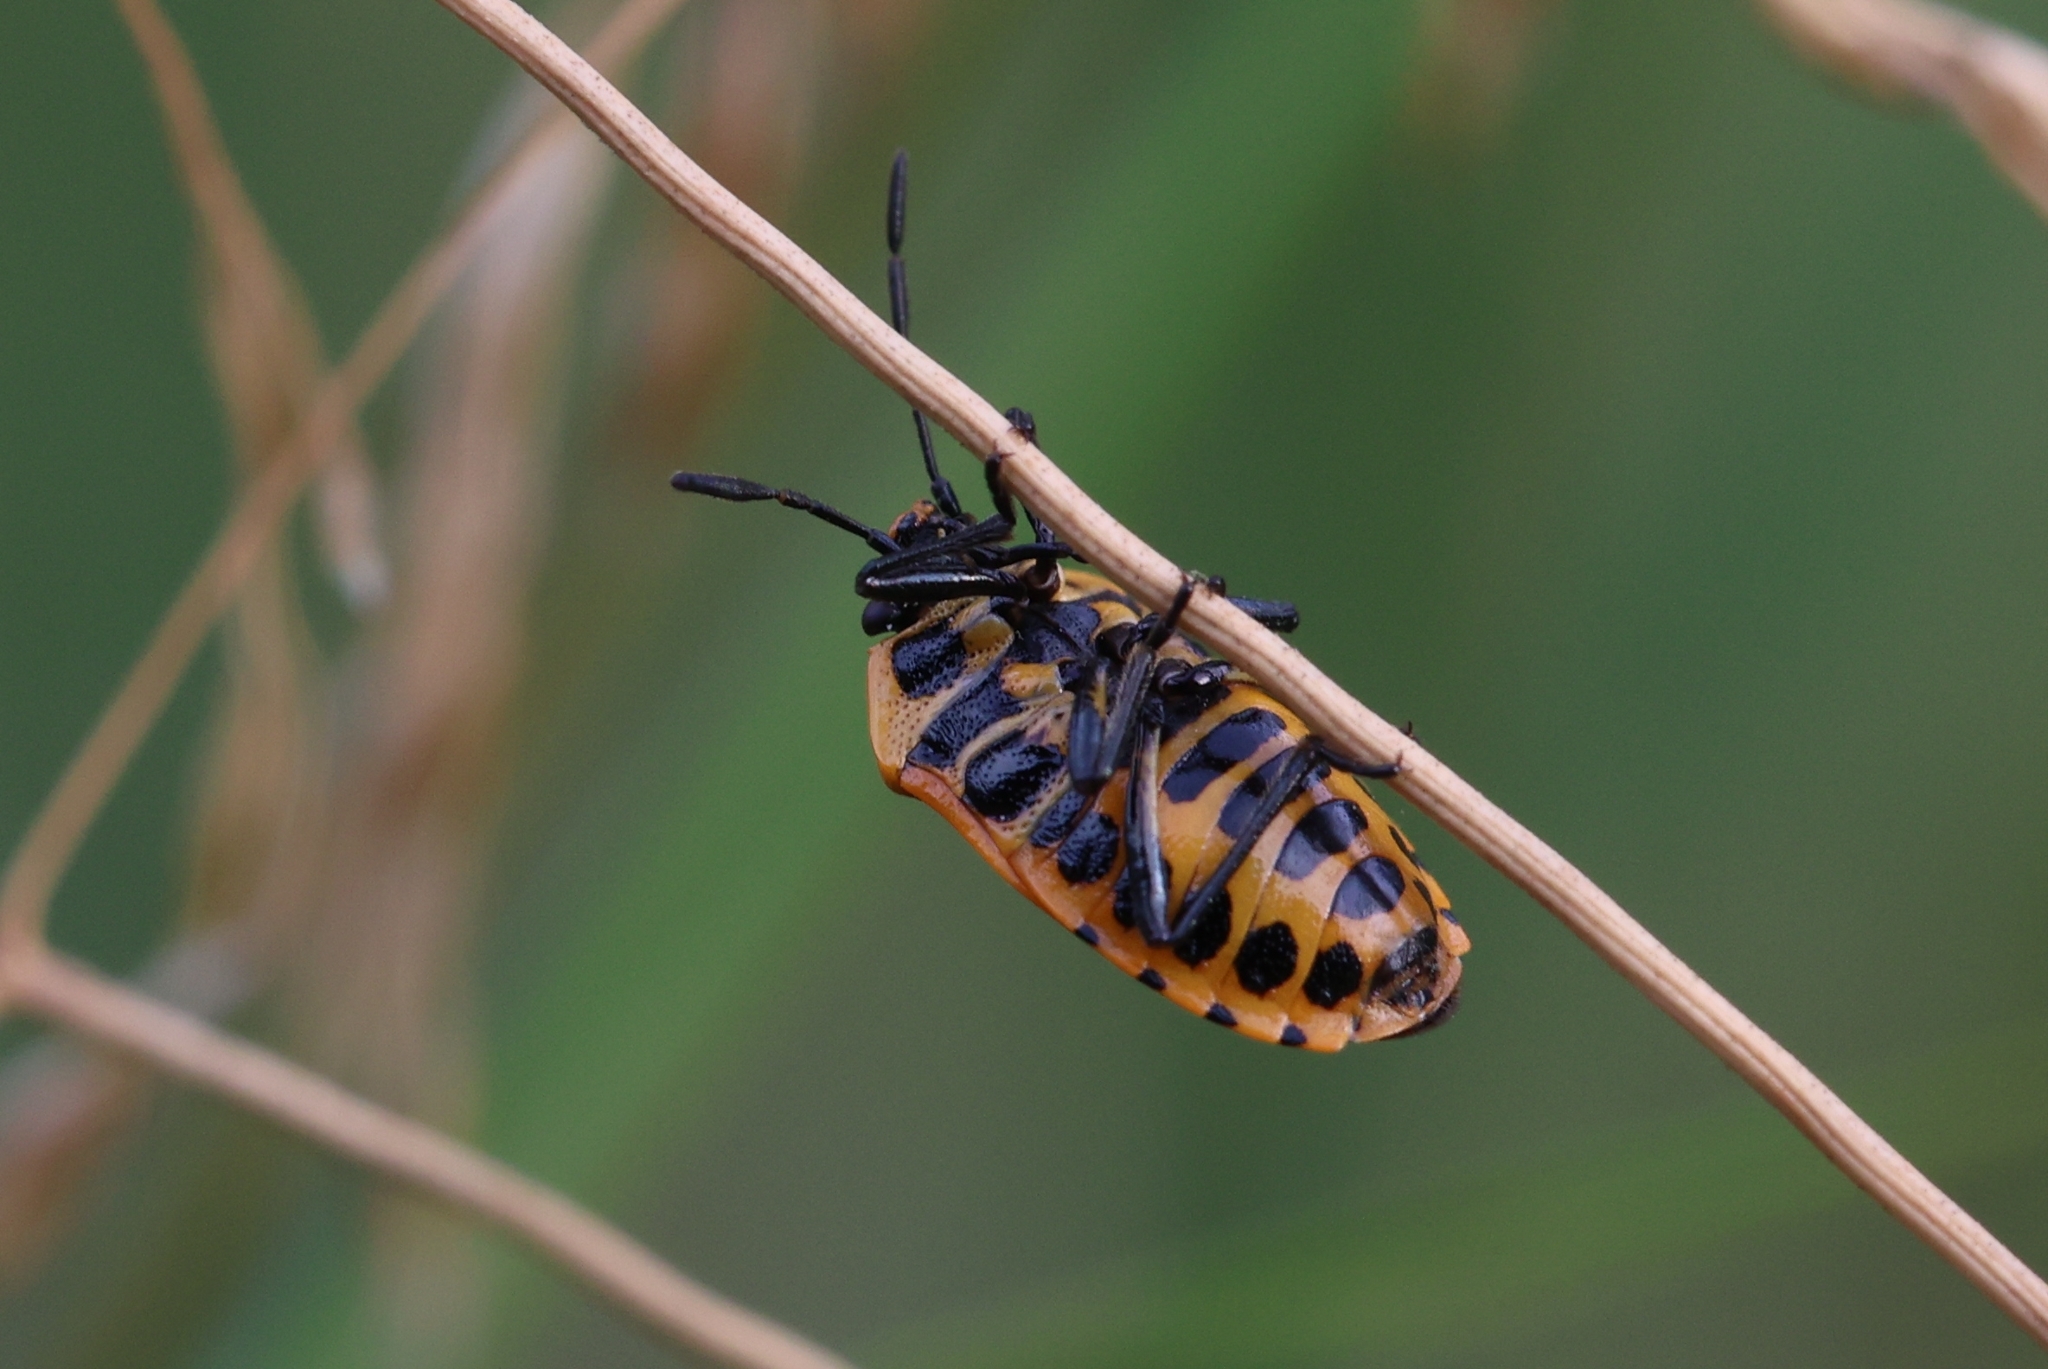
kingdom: Animalia
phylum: Arthropoda
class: Insecta
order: Hemiptera
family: Pentatomidae
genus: Eurydema
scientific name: Eurydema dominulus
